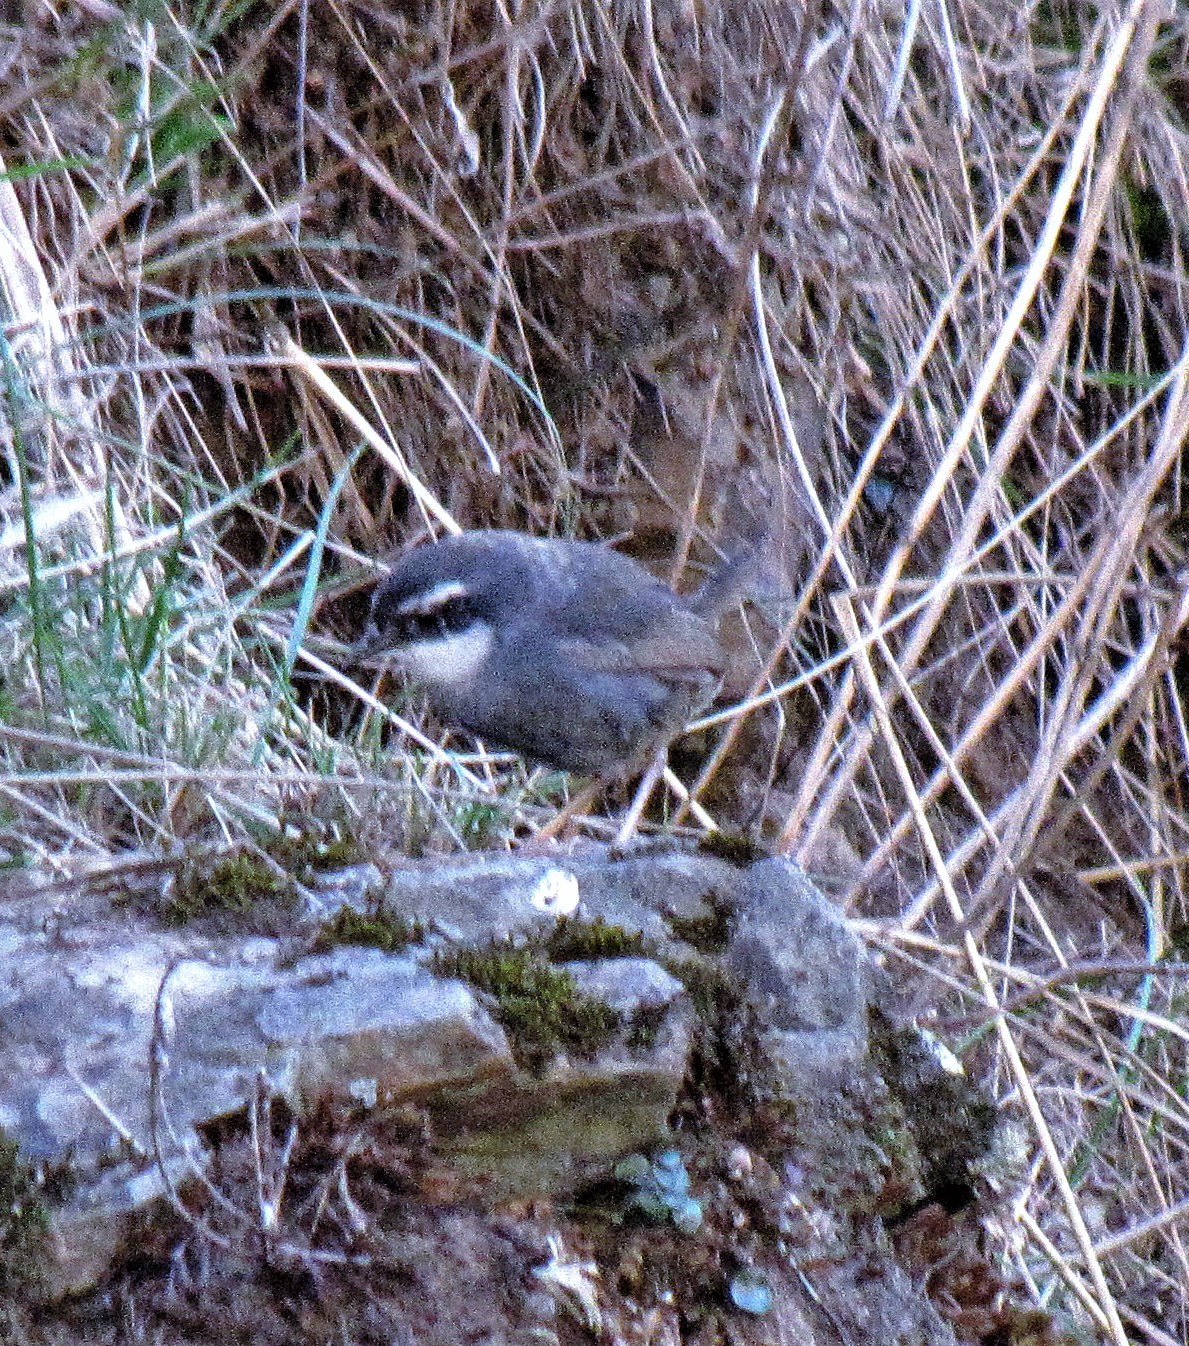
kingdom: Animalia
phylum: Chordata
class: Aves
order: Passeriformes
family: Rhinocryptidae
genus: Scytalopus
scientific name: Scytalopus zimmeri
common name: Zimmer's tapaculo
